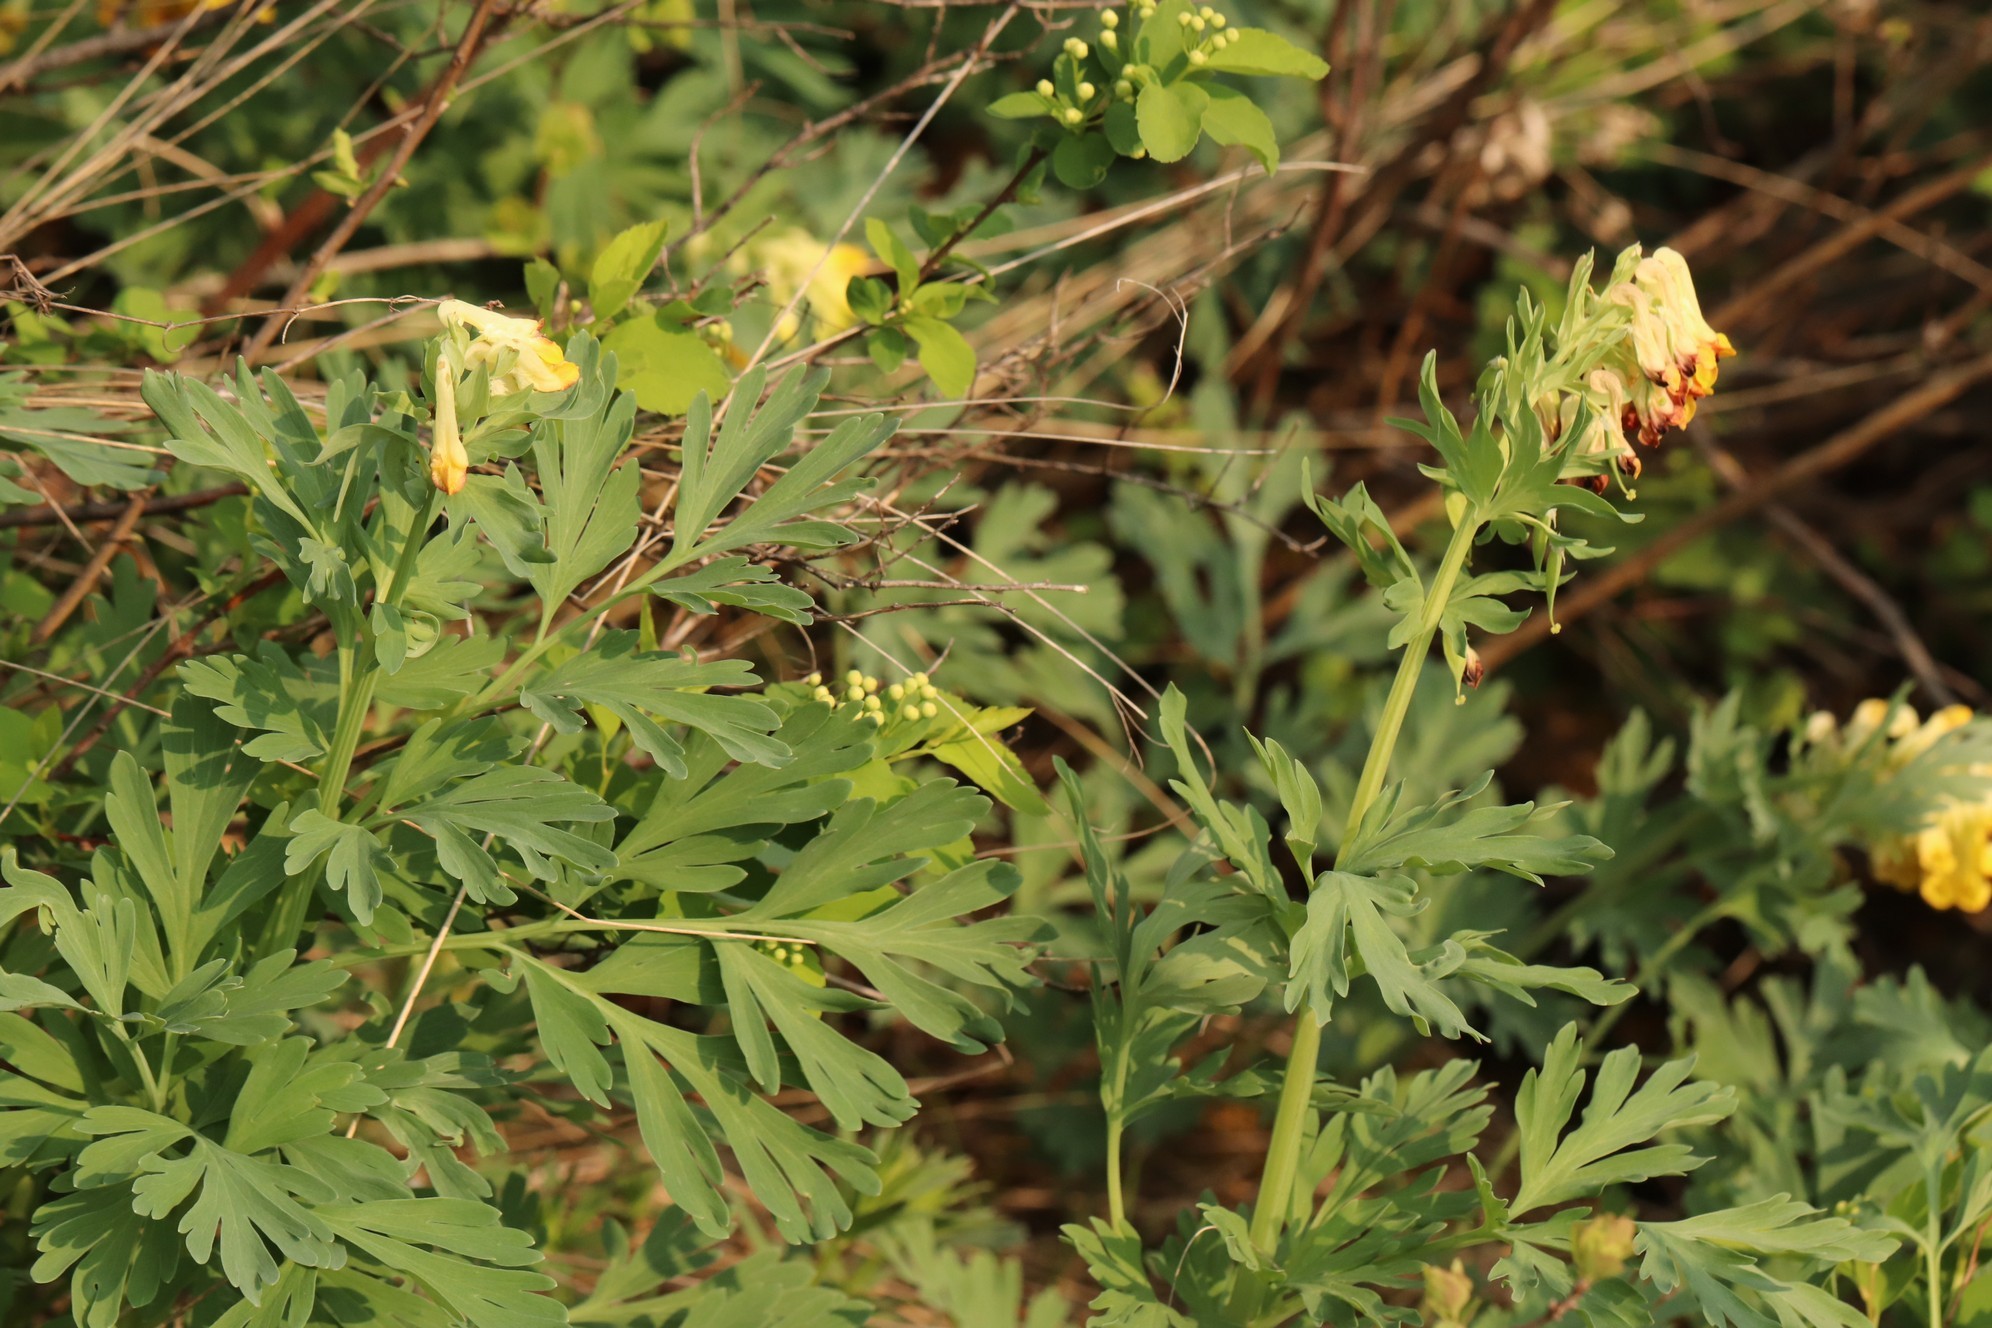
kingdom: Plantae
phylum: Tracheophyta
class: Magnoliopsida
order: Ranunculales
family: Papaveraceae
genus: Corydalis
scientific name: Corydalis nobilis
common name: Siberian corydalis
